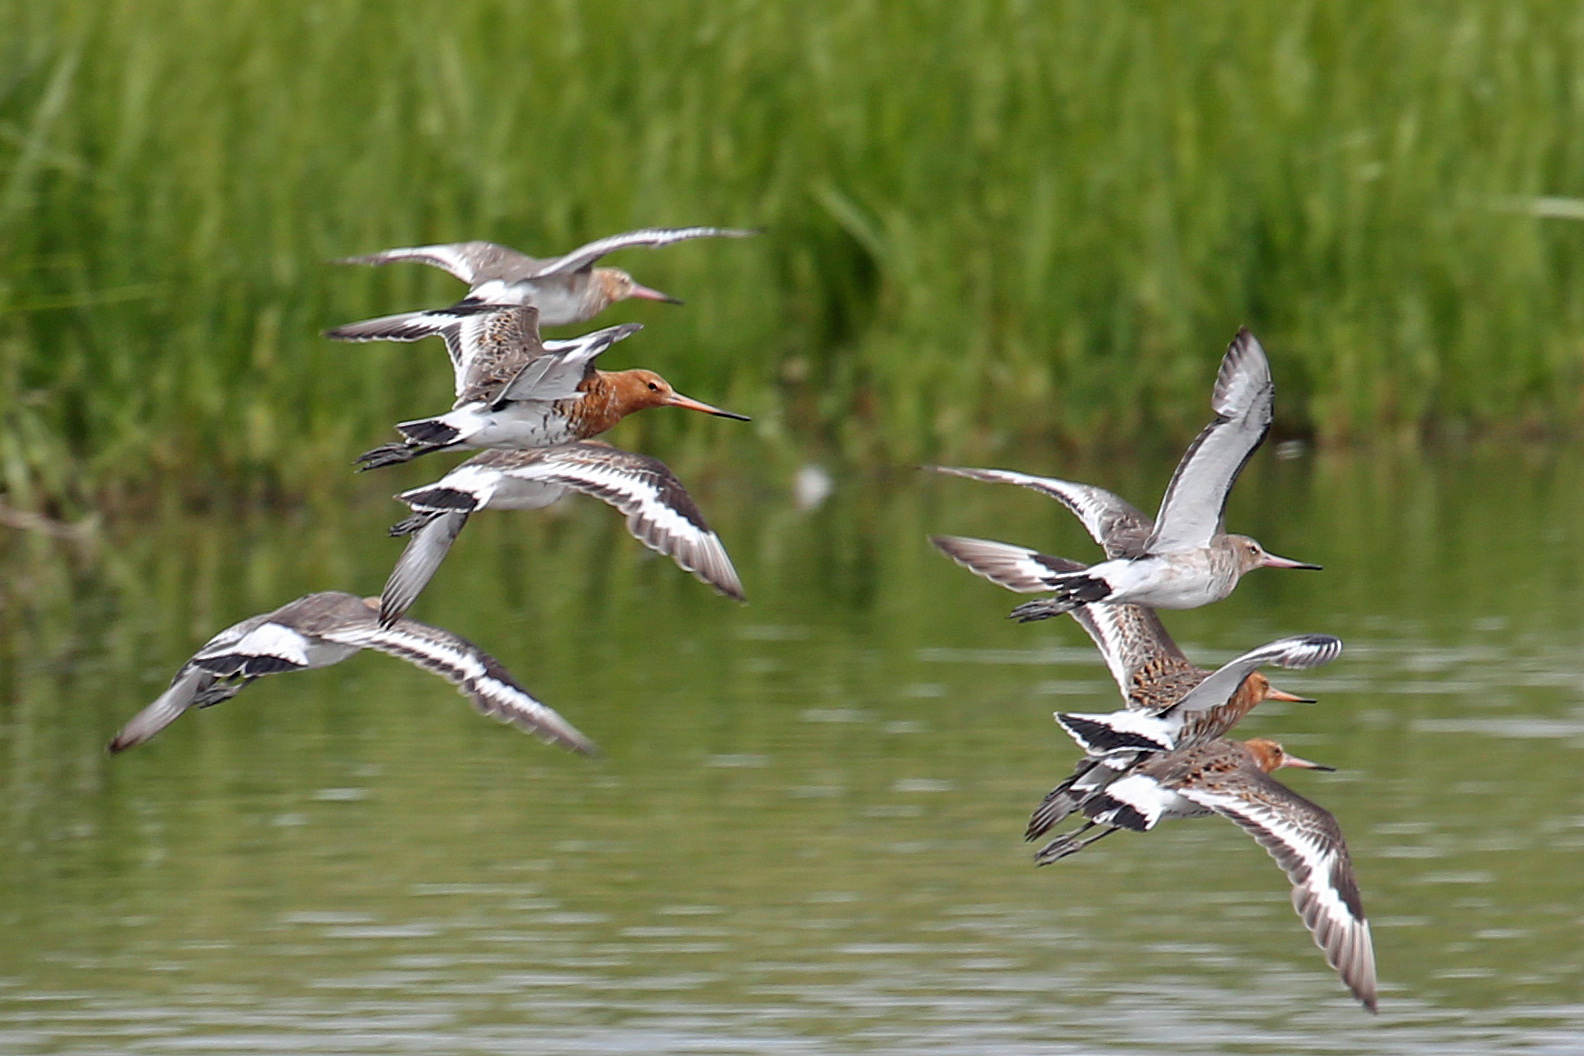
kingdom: Animalia
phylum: Chordata
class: Aves
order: Charadriiformes
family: Scolopacidae
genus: Limosa
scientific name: Limosa limosa
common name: Black-tailed godwit
